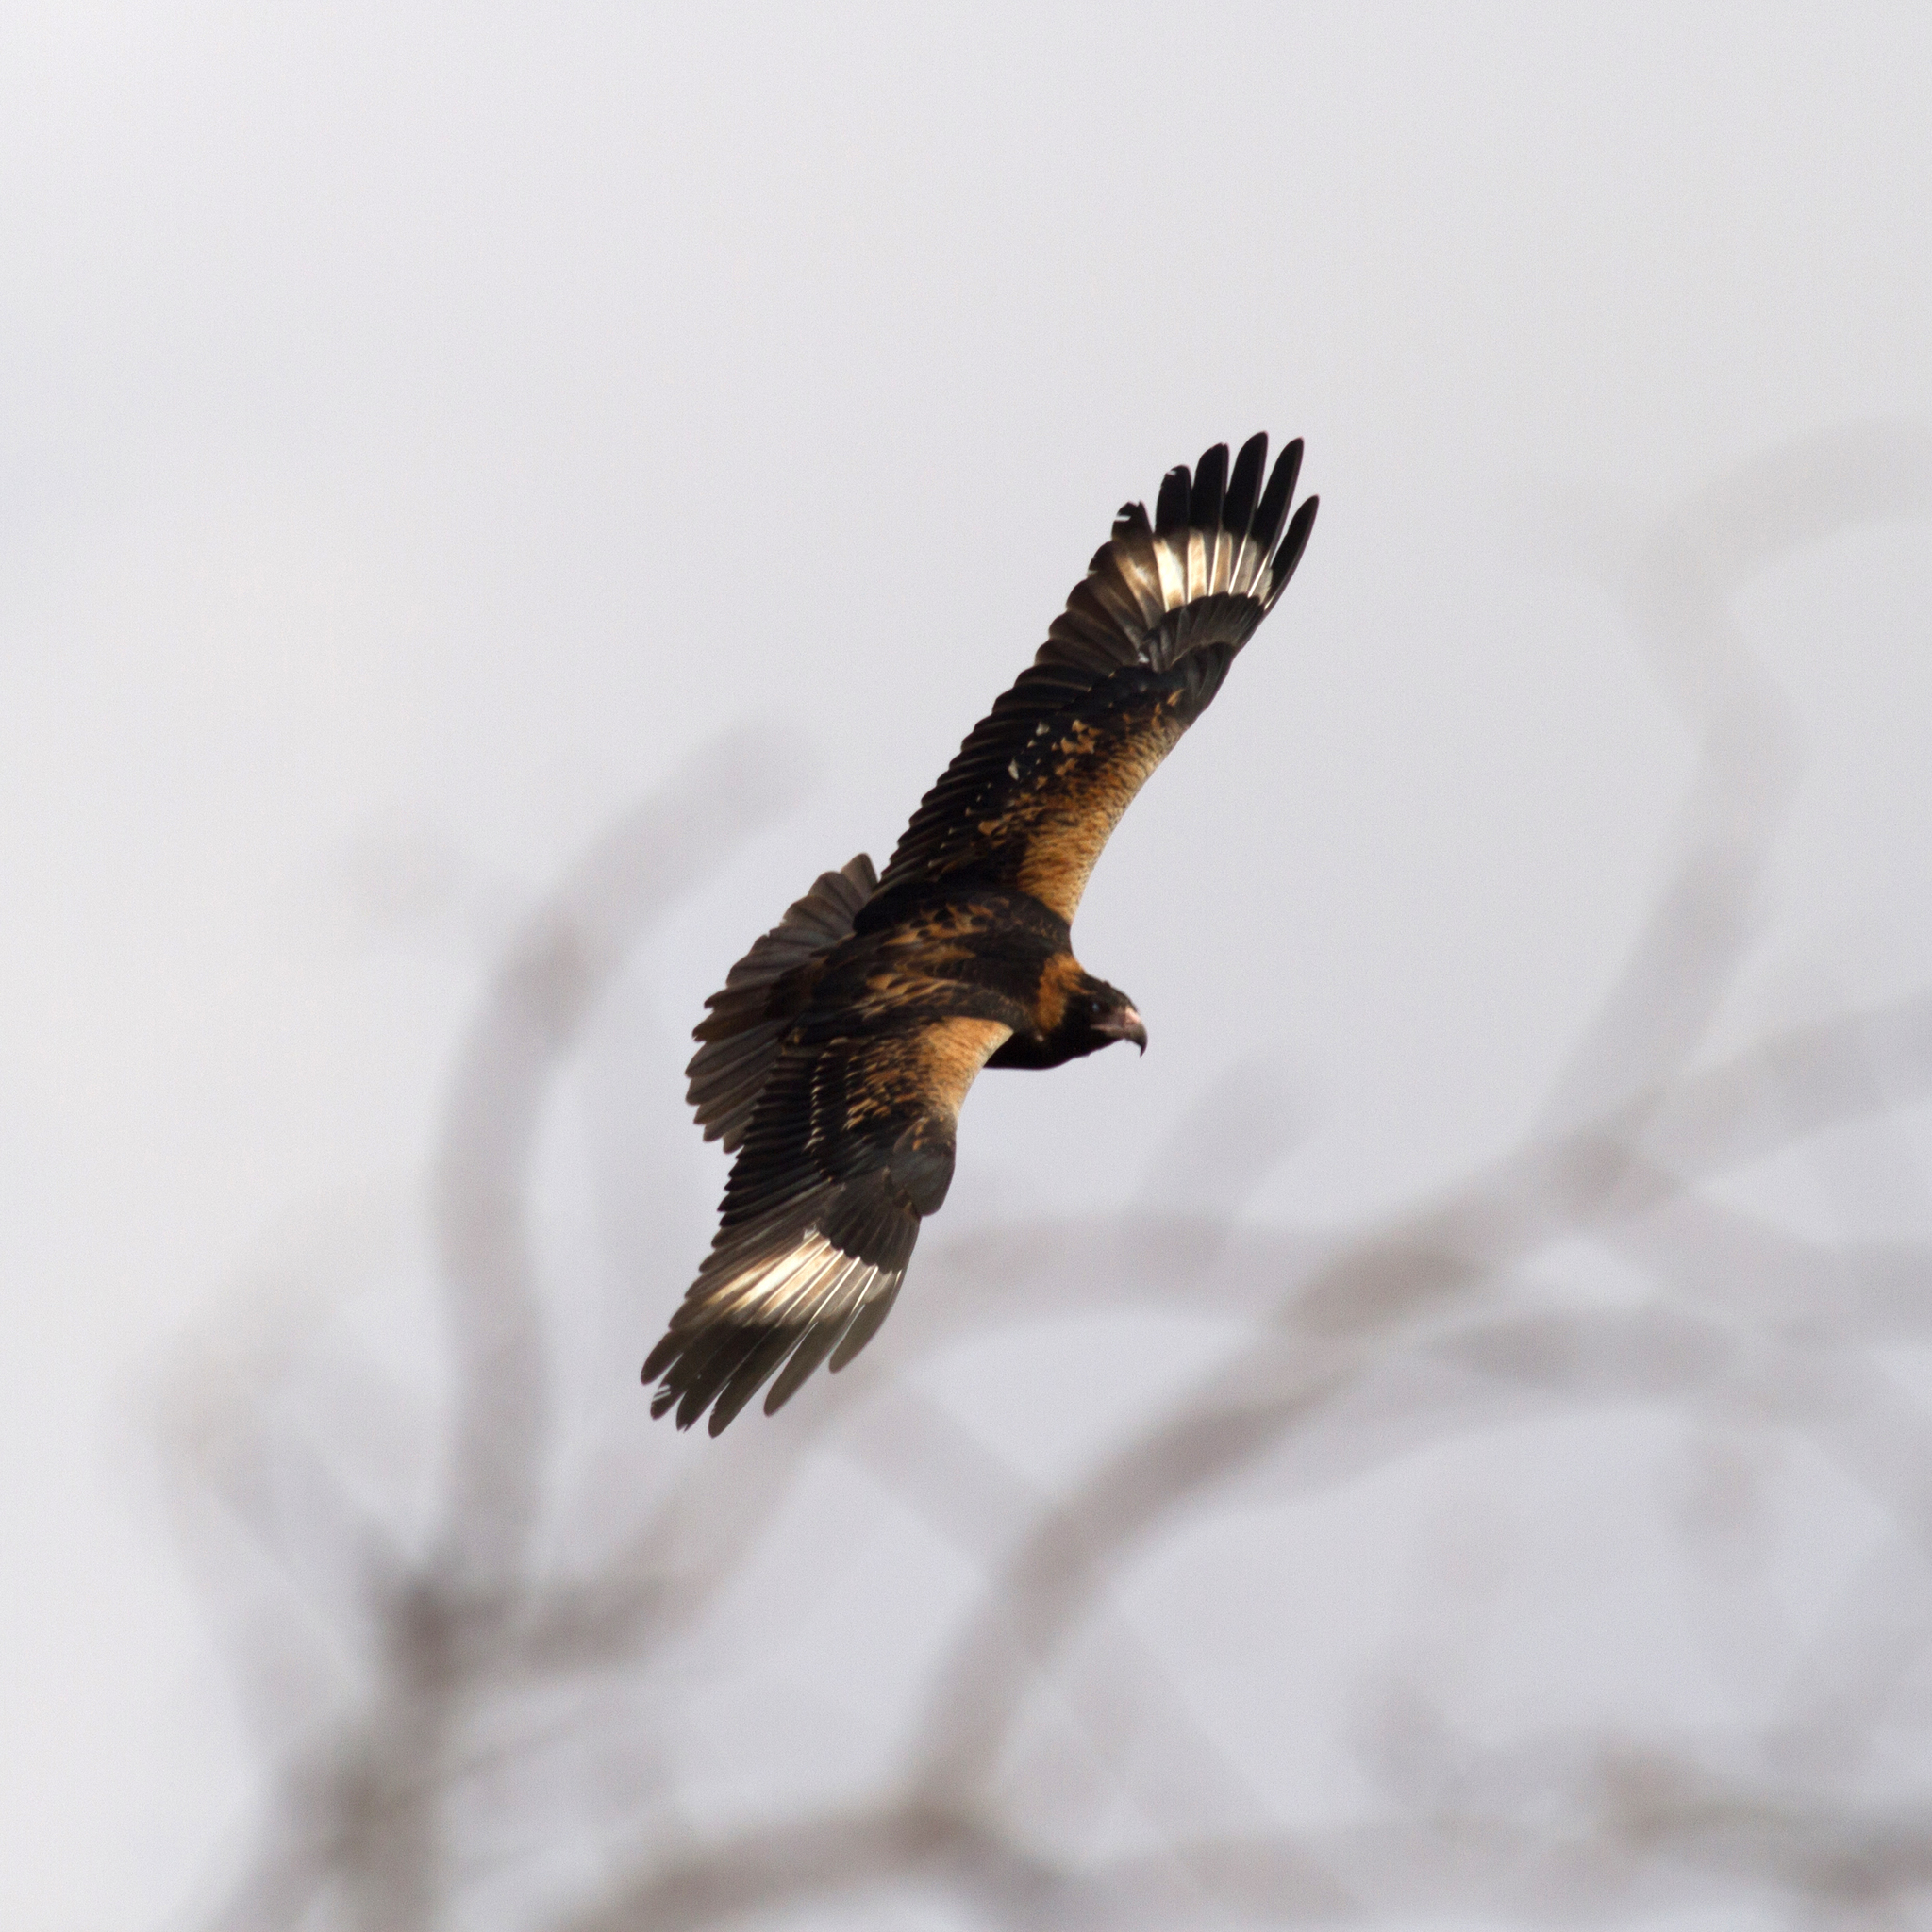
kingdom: Animalia
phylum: Chordata
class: Aves
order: Accipitriformes
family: Accipitridae
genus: Hamirostra
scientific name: Hamirostra melanosternon
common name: Black-breasted buzzard
